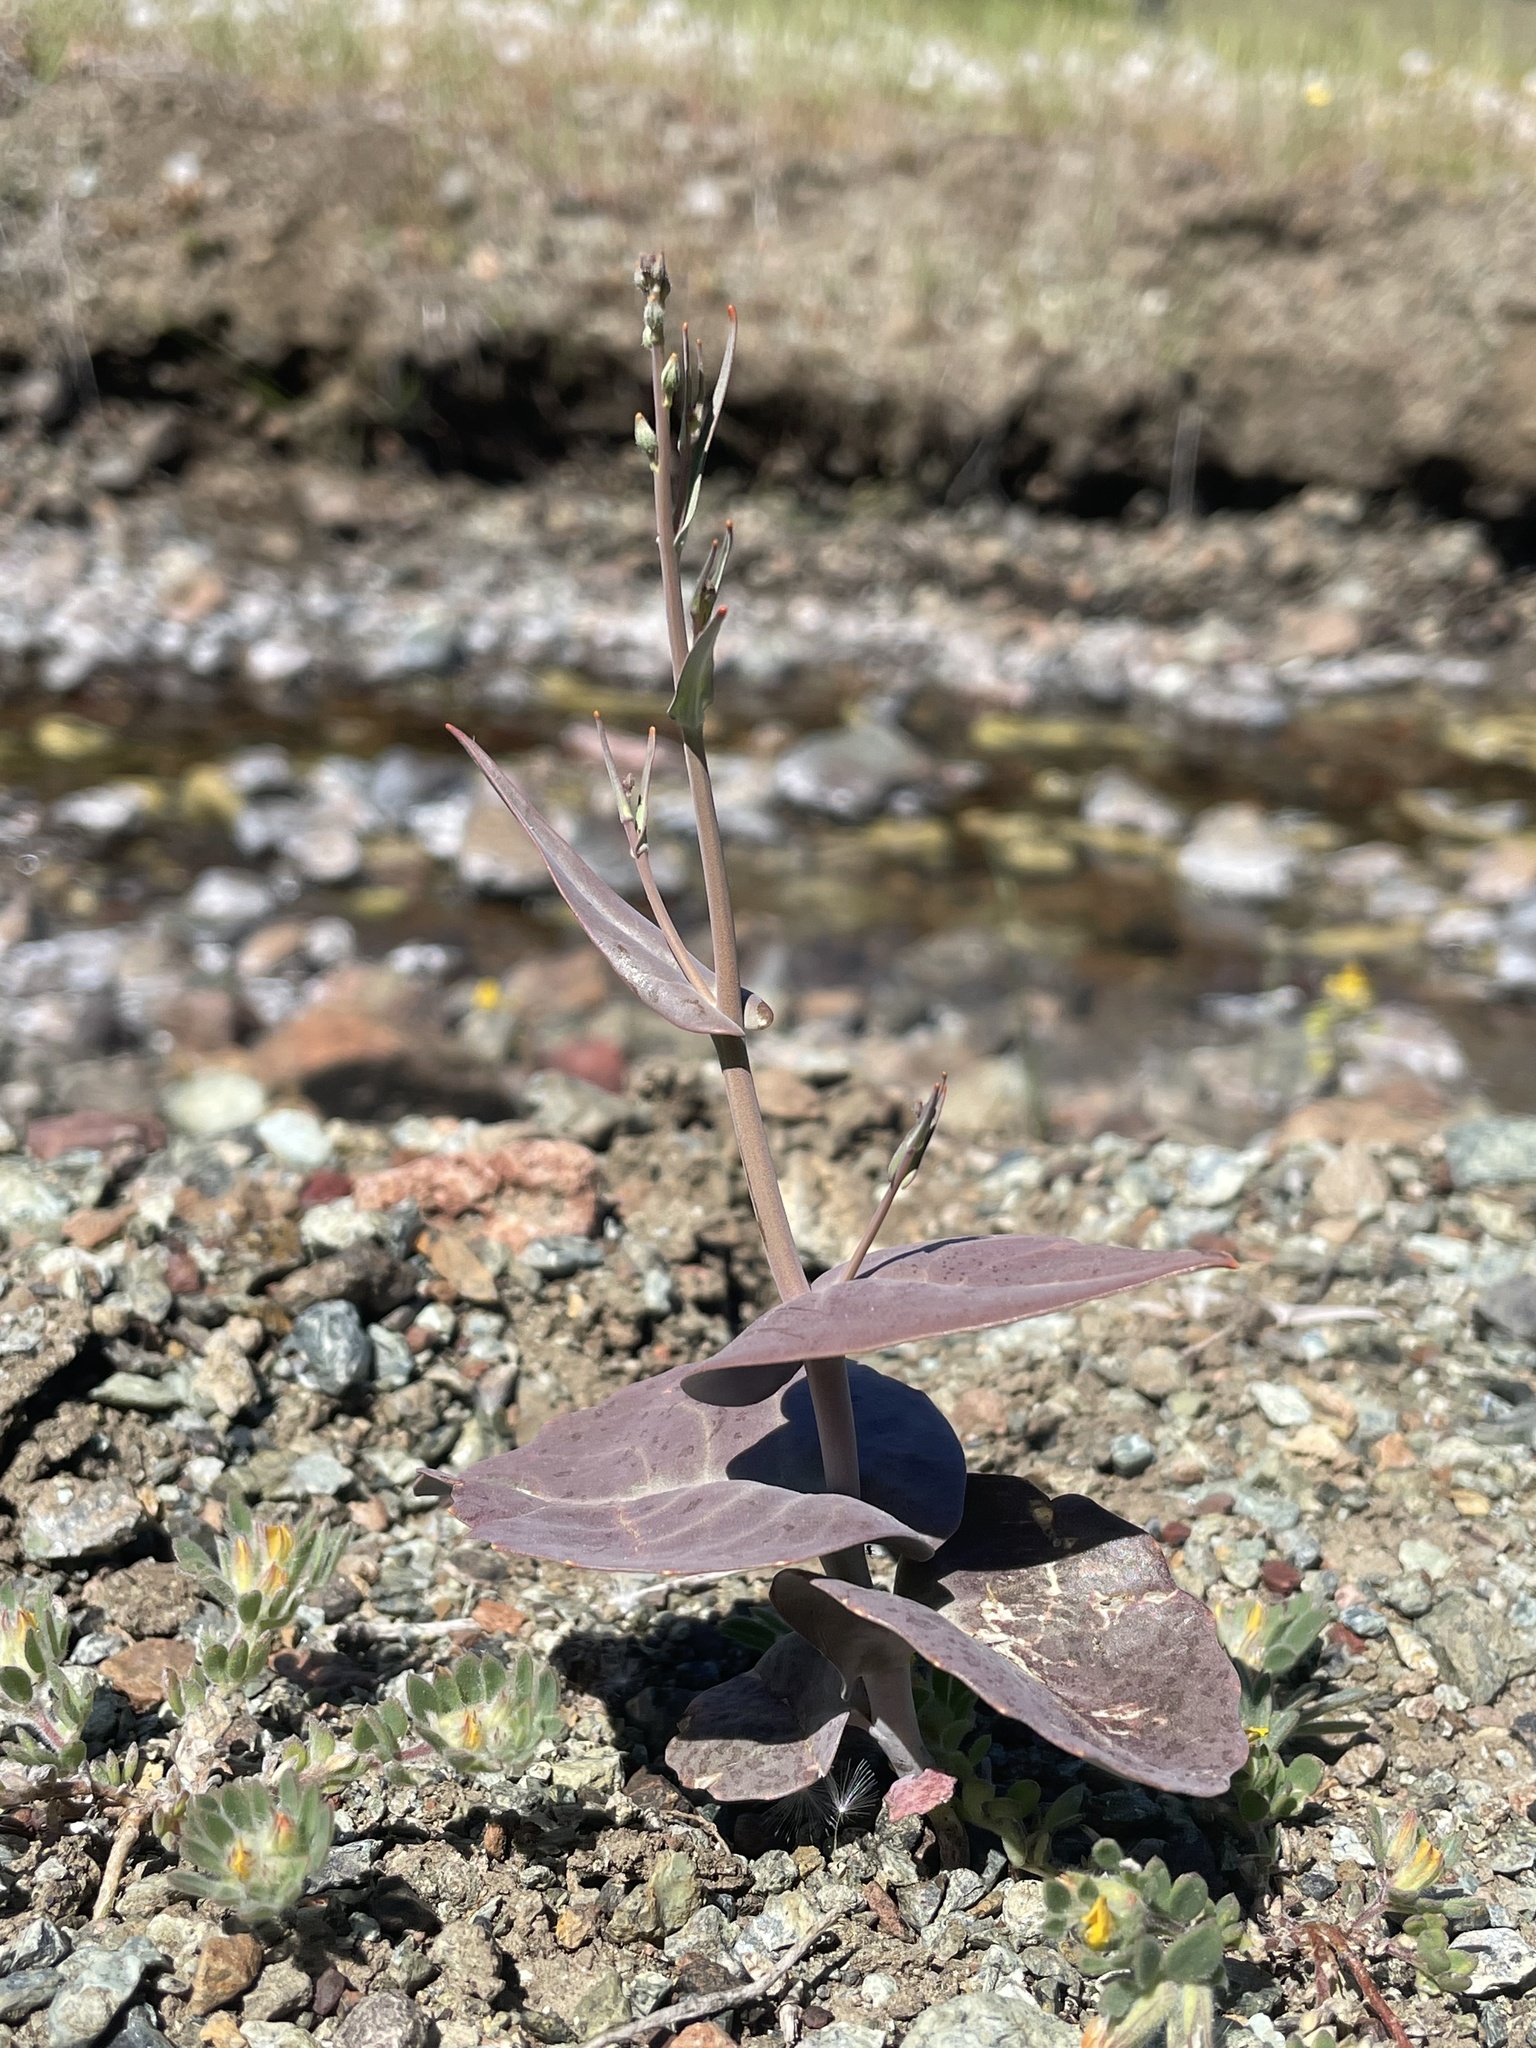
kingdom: Plantae
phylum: Tracheophyta
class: Magnoliopsida
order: Brassicales
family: Brassicaceae
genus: Streptanthus
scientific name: Streptanthus breweri
